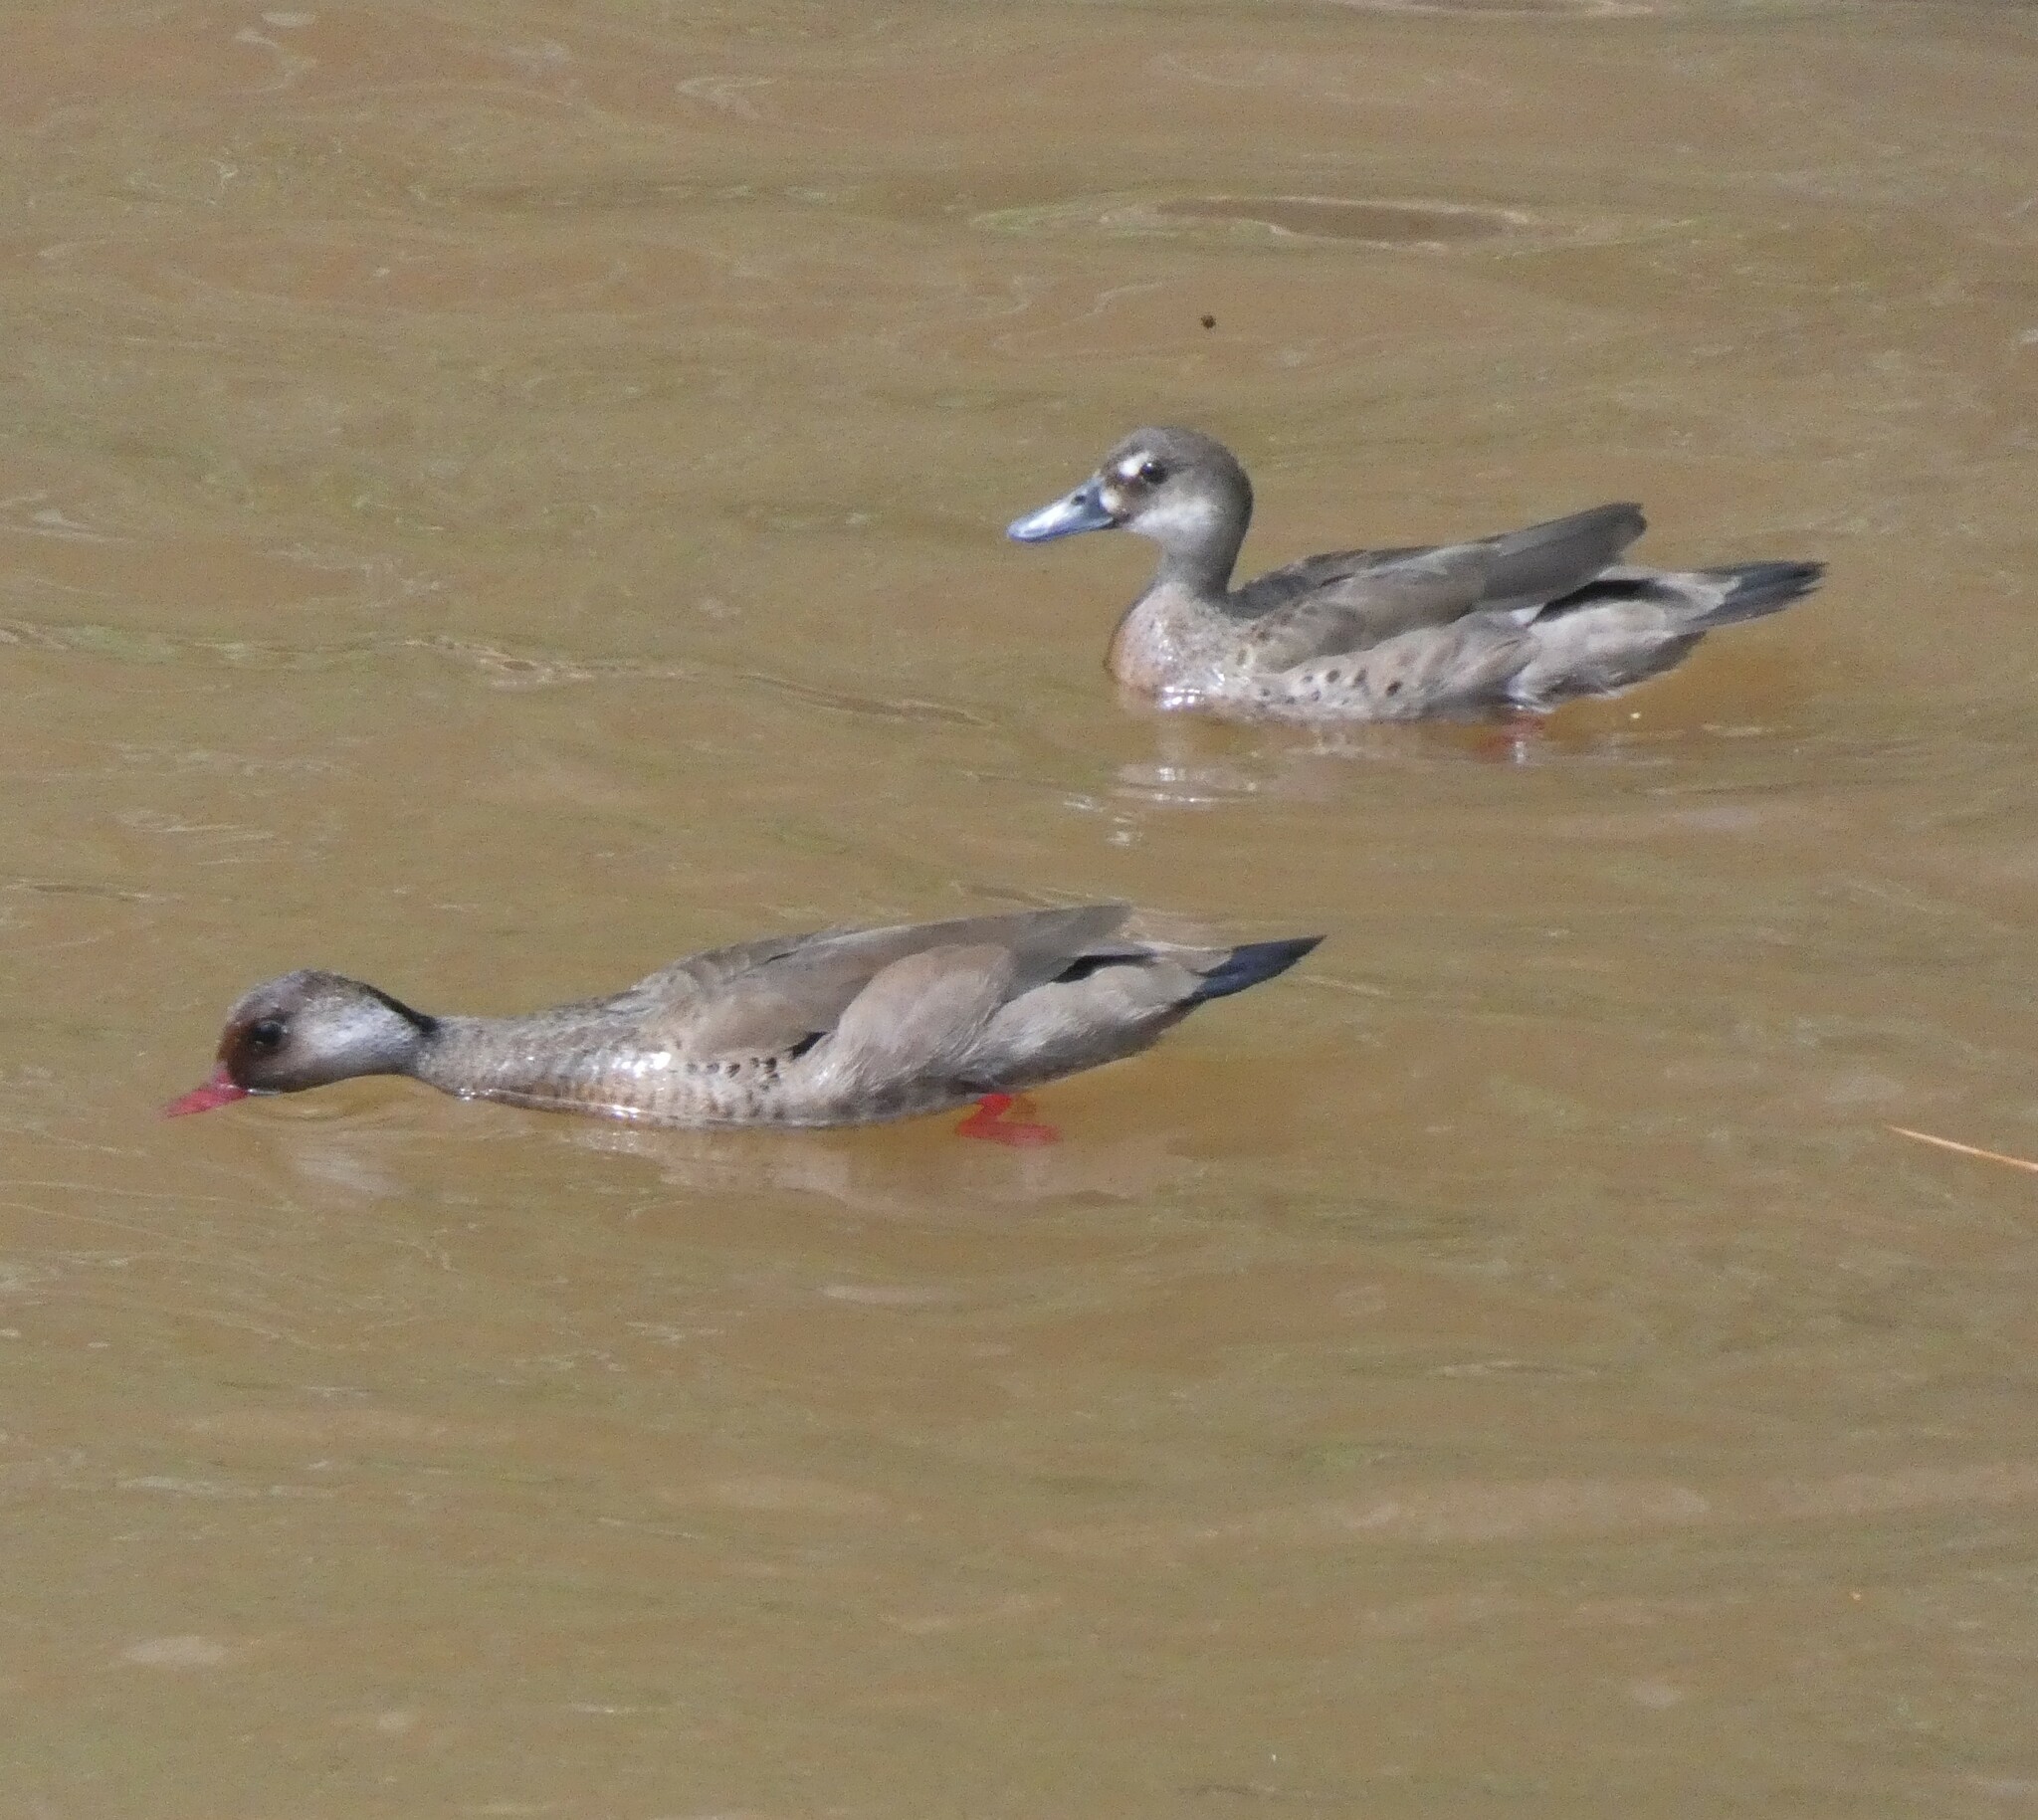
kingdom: Animalia
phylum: Chordata
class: Aves
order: Anseriformes
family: Anatidae
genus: Amazonetta
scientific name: Amazonetta brasiliensis
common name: Brazilian teal
